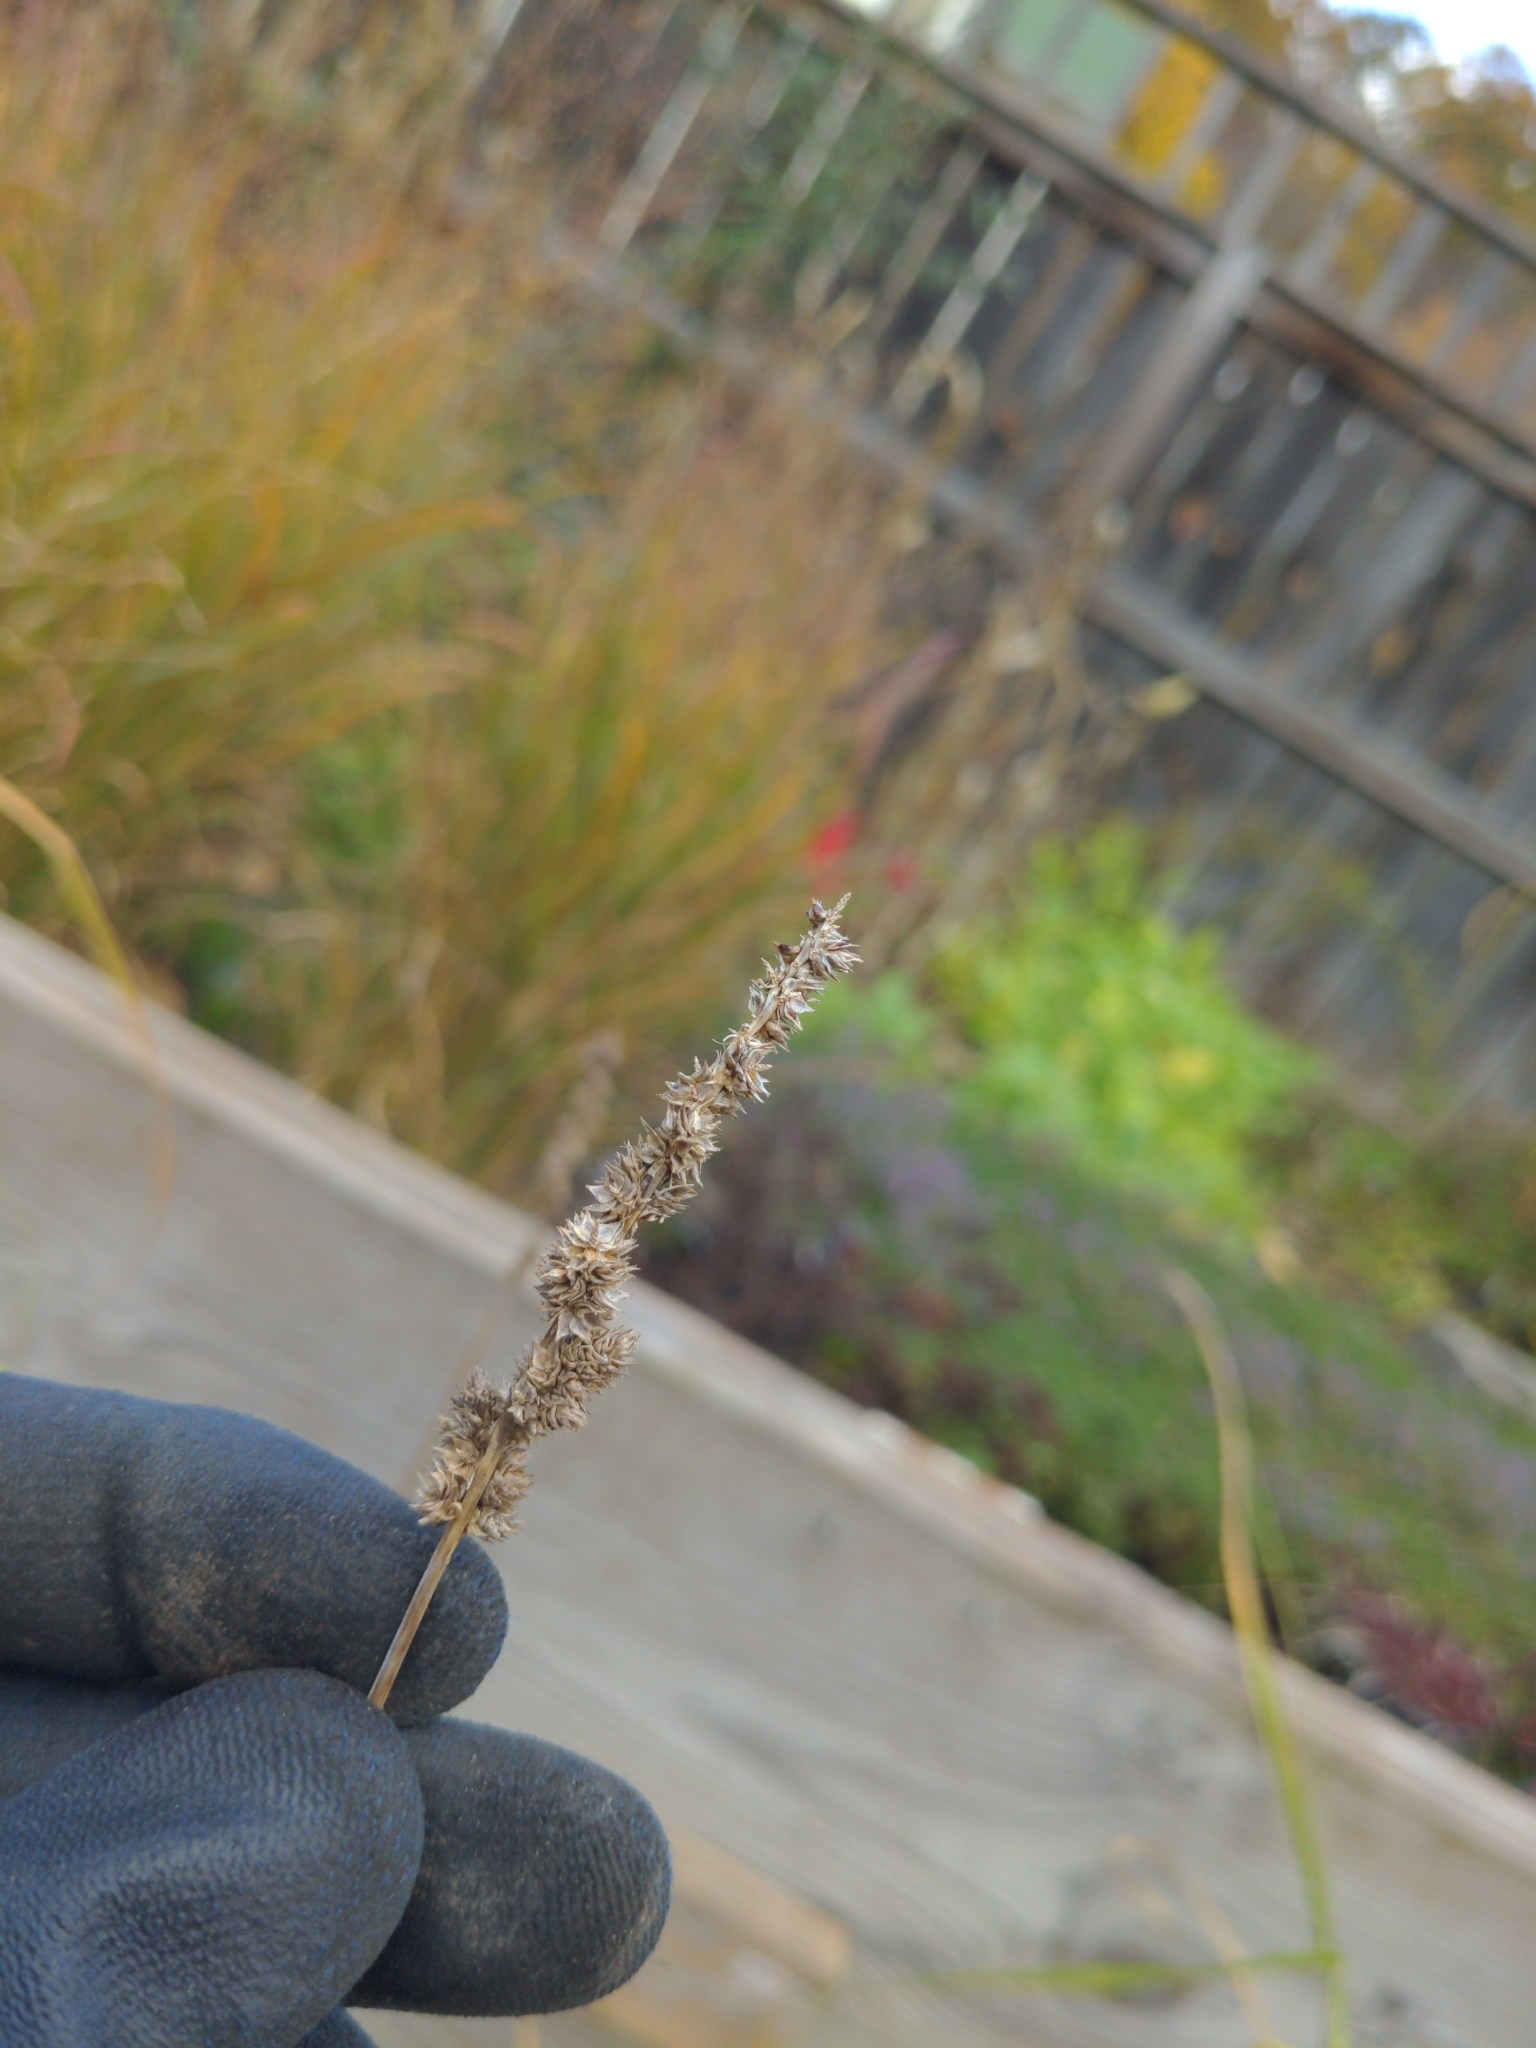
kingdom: Plantae
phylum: Tracheophyta
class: Liliopsida
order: Poales
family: Cyperaceae
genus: Carex
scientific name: Carex vulpinoidea
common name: American fox-sedge
